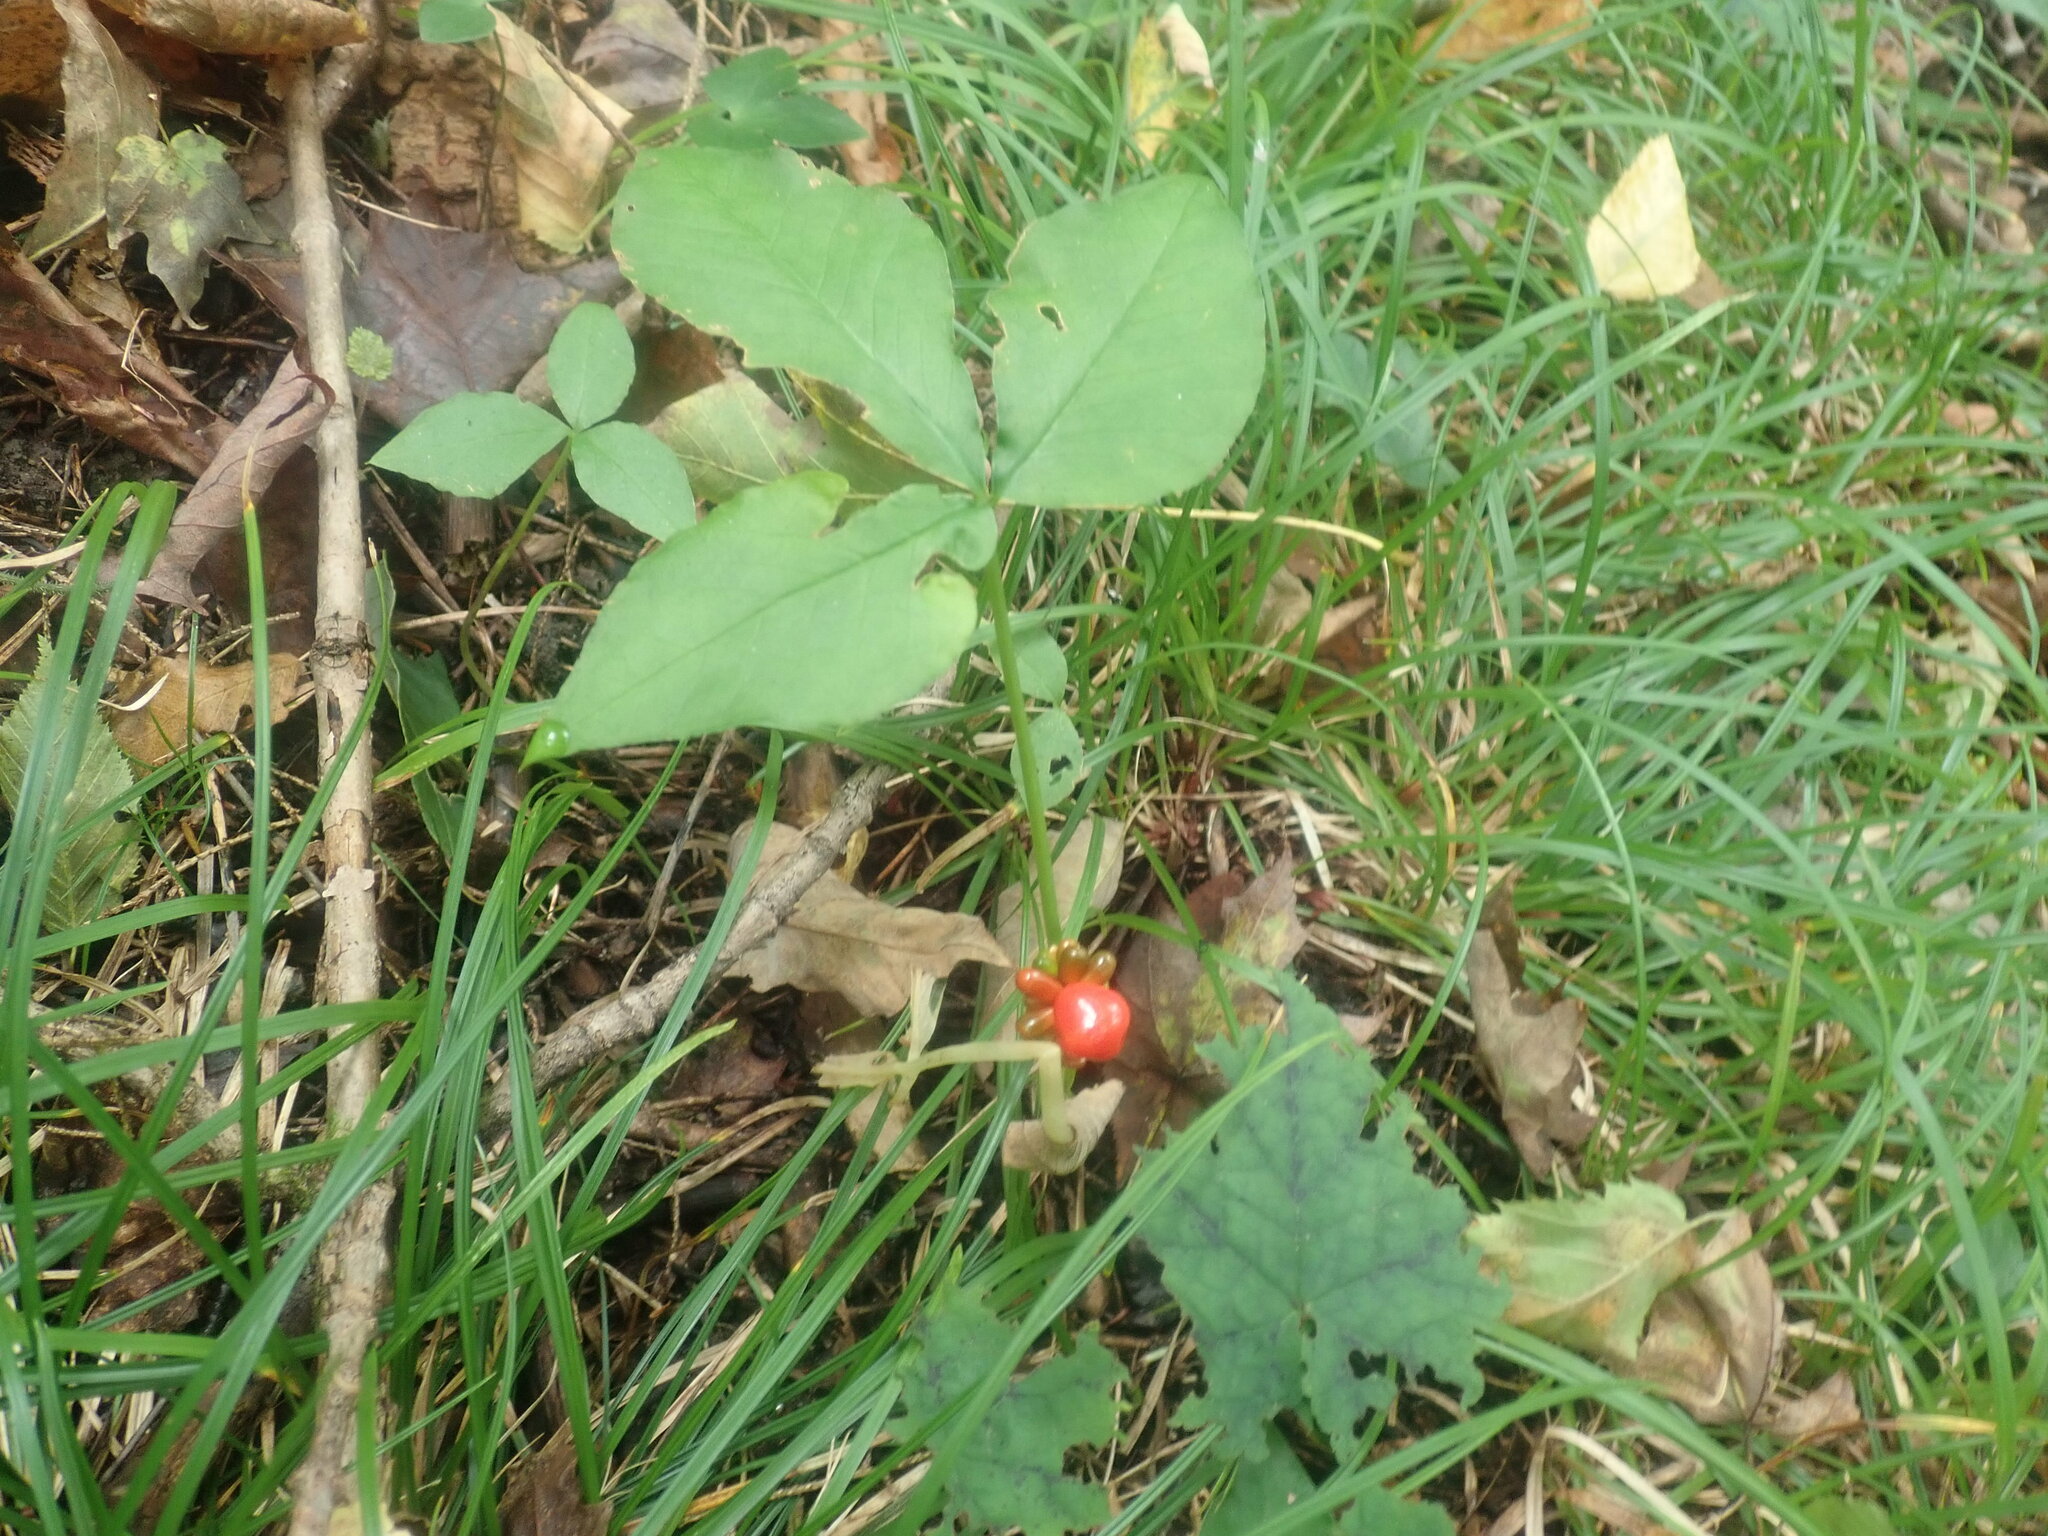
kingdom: Plantae
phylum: Tracheophyta
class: Liliopsida
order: Alismatales
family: Araceae
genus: Arisaema
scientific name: Arisaema
